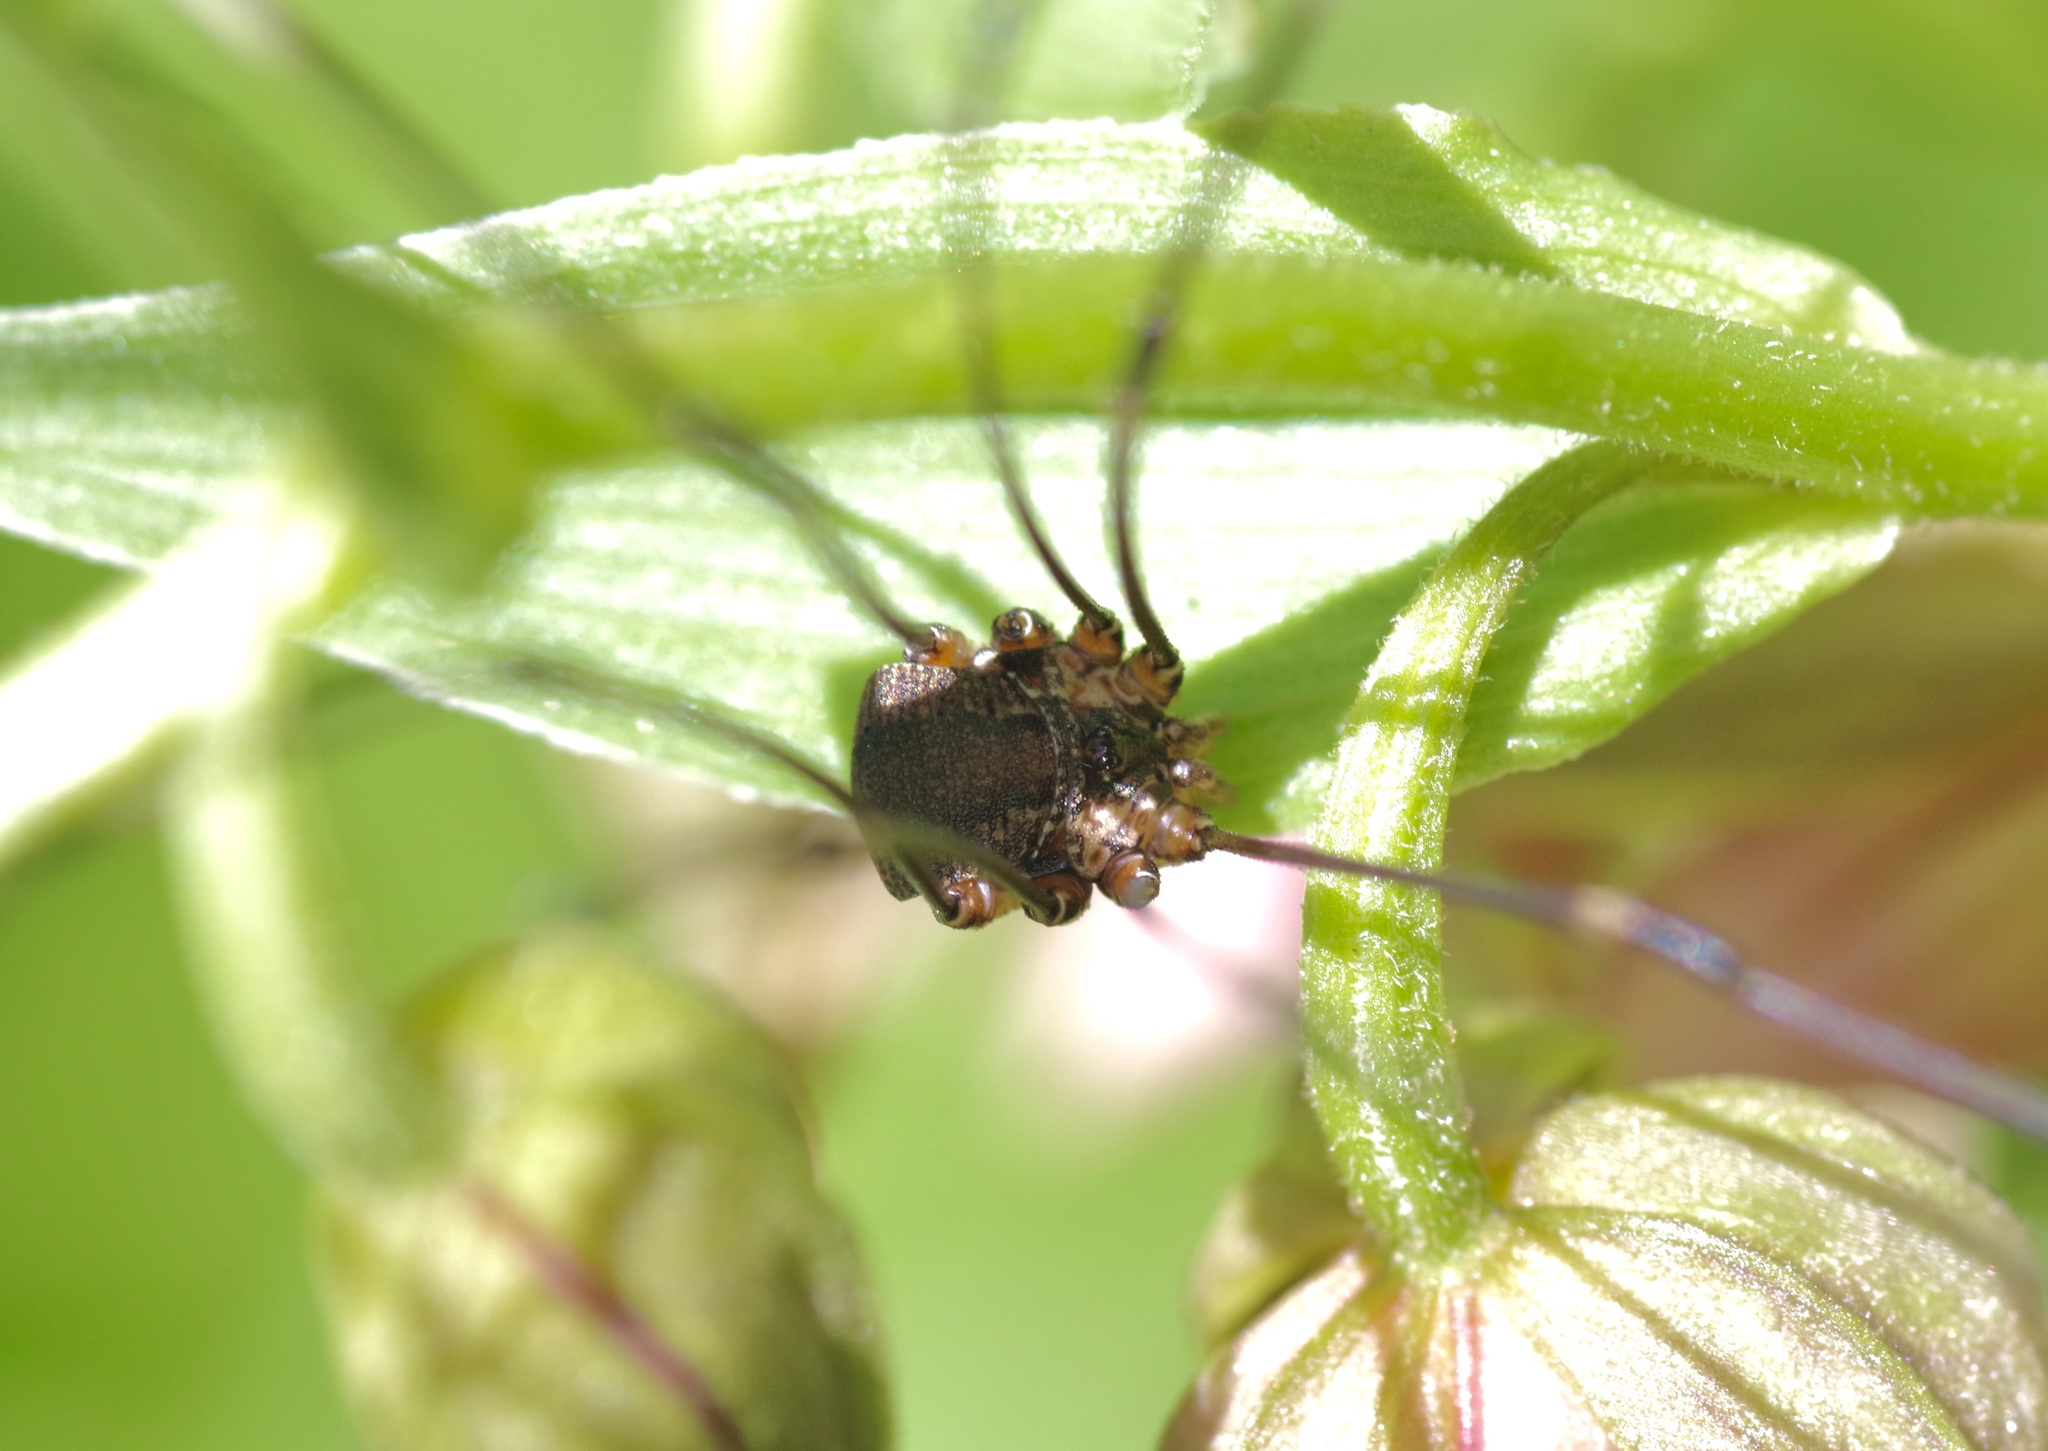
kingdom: Animalia
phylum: Arthropoda
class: Arachnida
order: Opiliones
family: Sclerosomatidae
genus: Leiobunum
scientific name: Leiobunum townsendi
